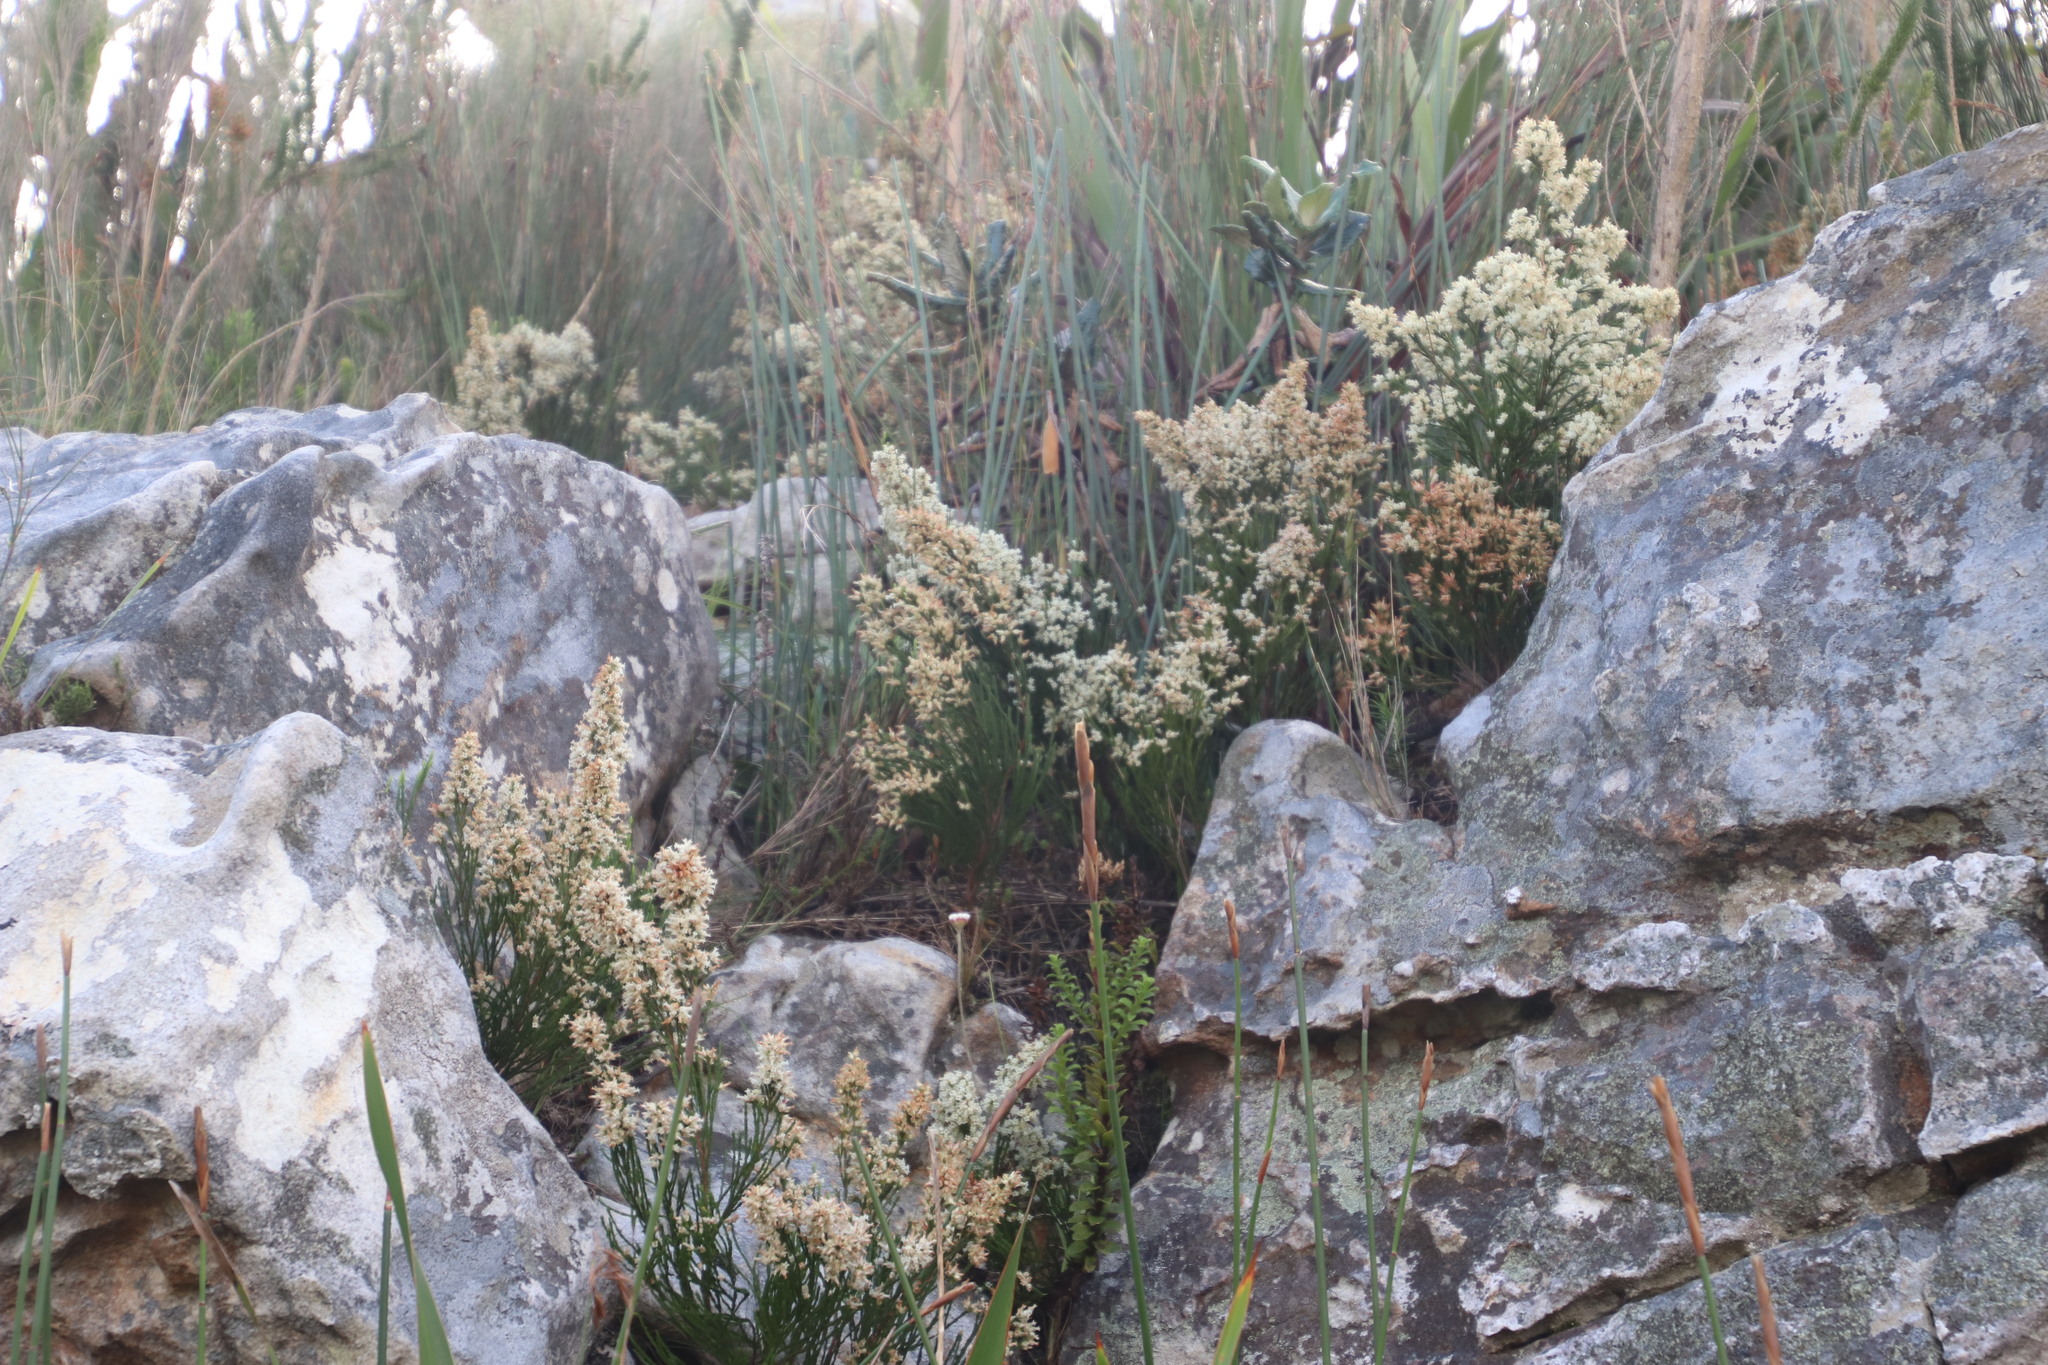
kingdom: Plantae
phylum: Tracheophyta
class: Magnoliopsida
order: Ericales
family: Ericaceae
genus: Erica
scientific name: Erica lutea
